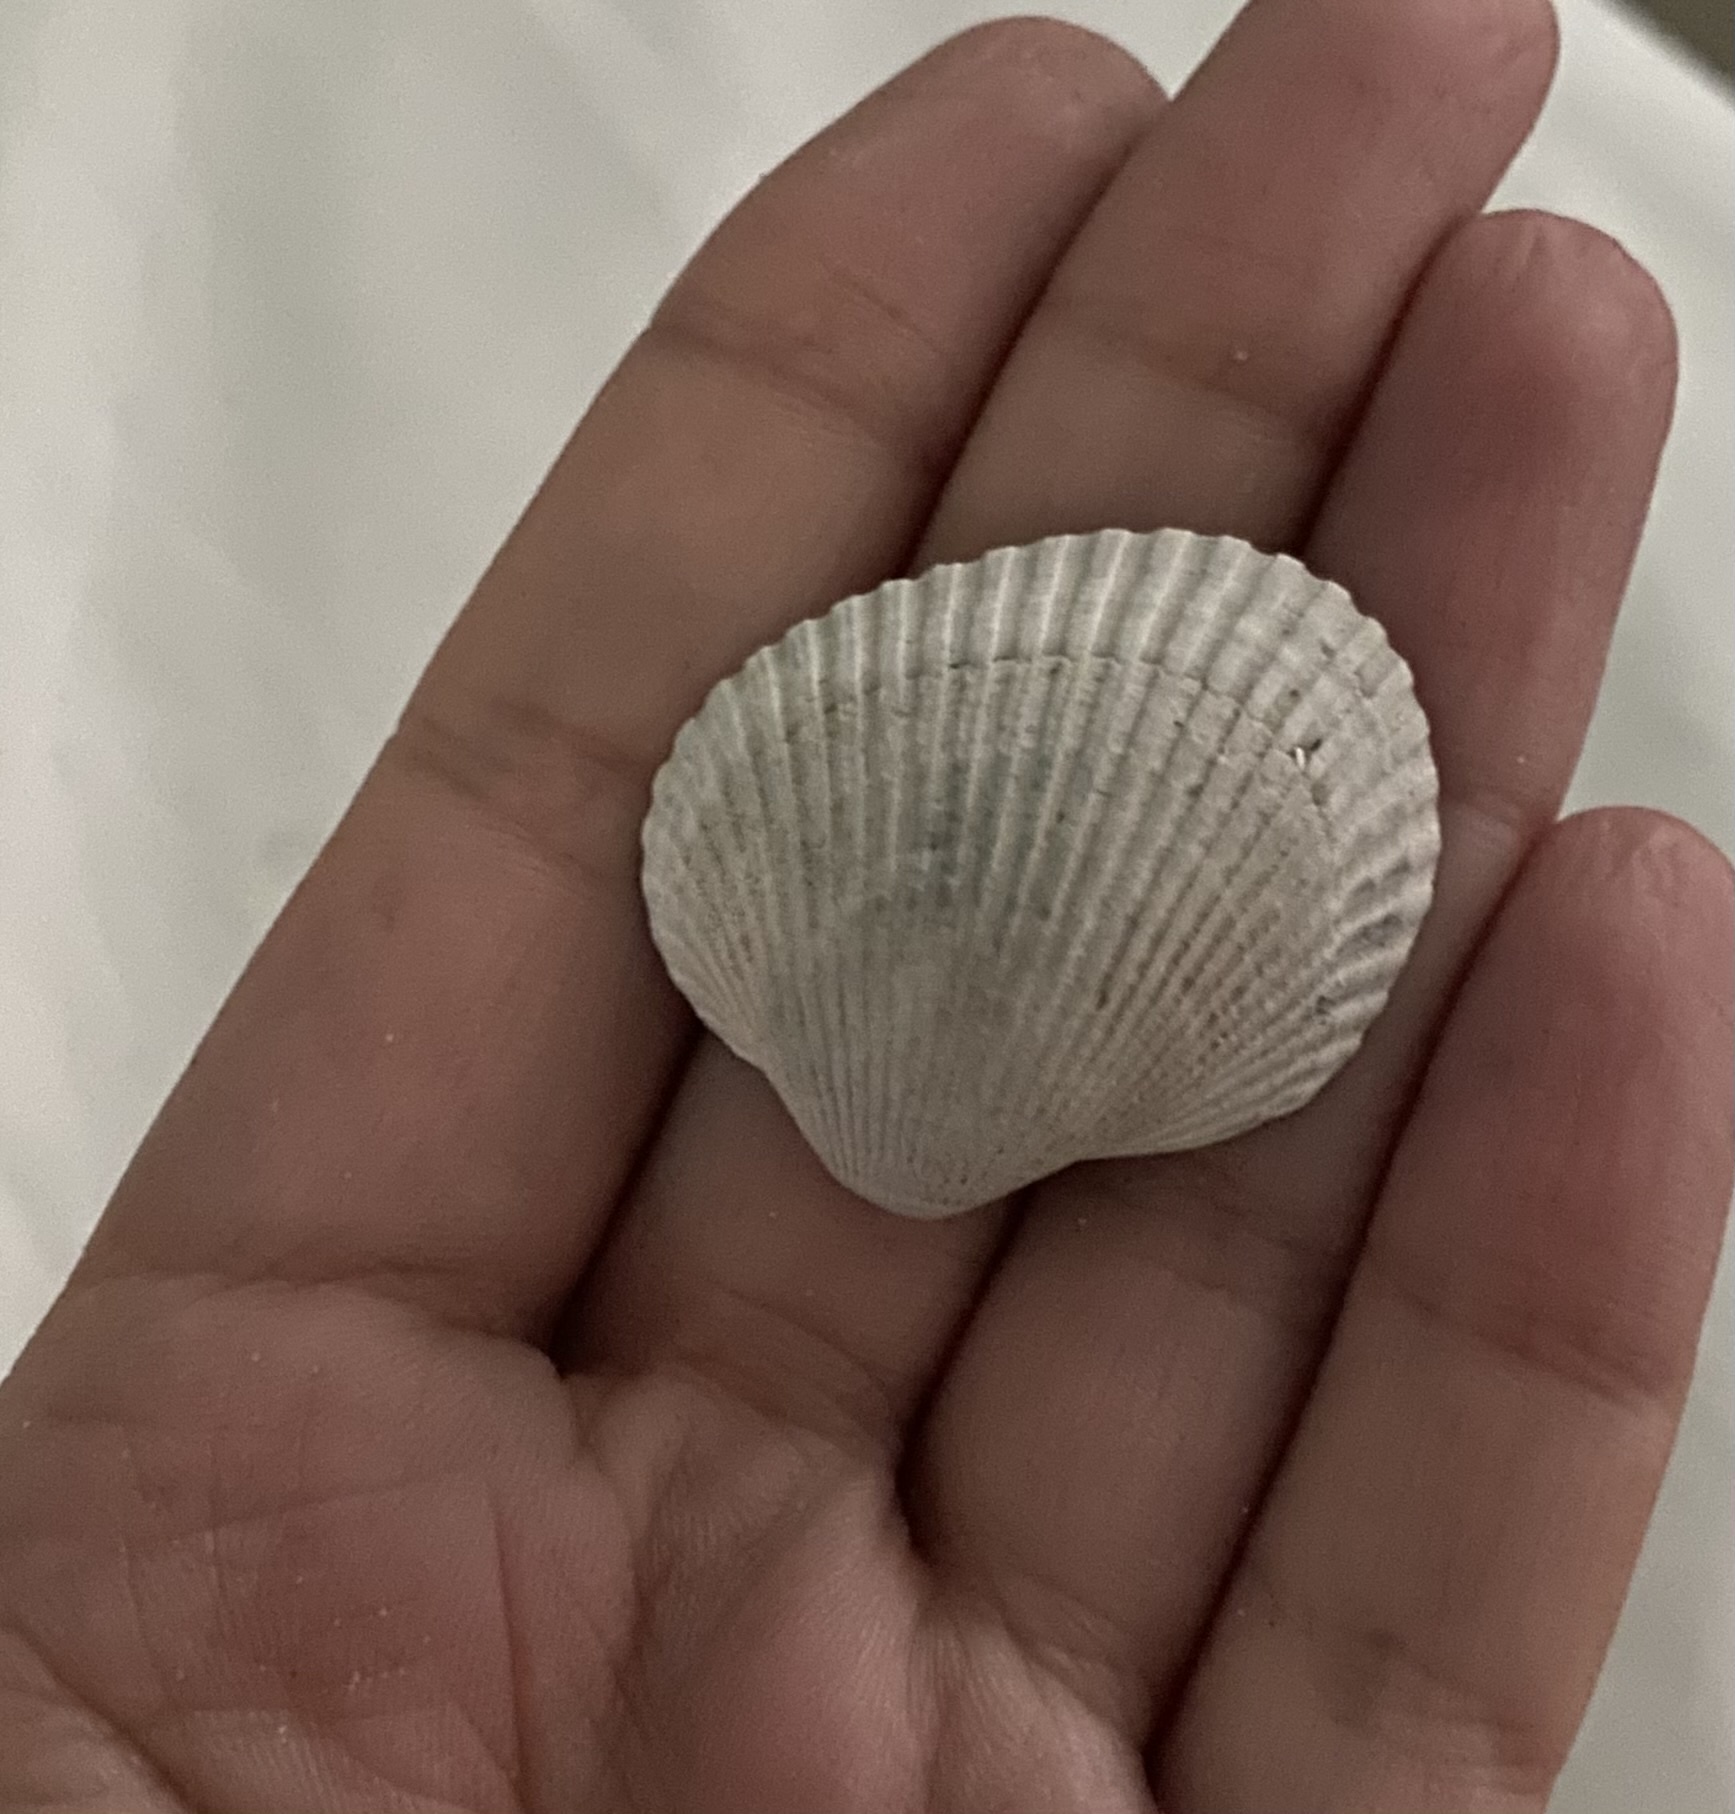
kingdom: Animalia
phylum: Mollusca
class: Bivalvia
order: Arcida
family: Arcidae
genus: Lunarca
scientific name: Lunarca ovalis
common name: Blood ark
